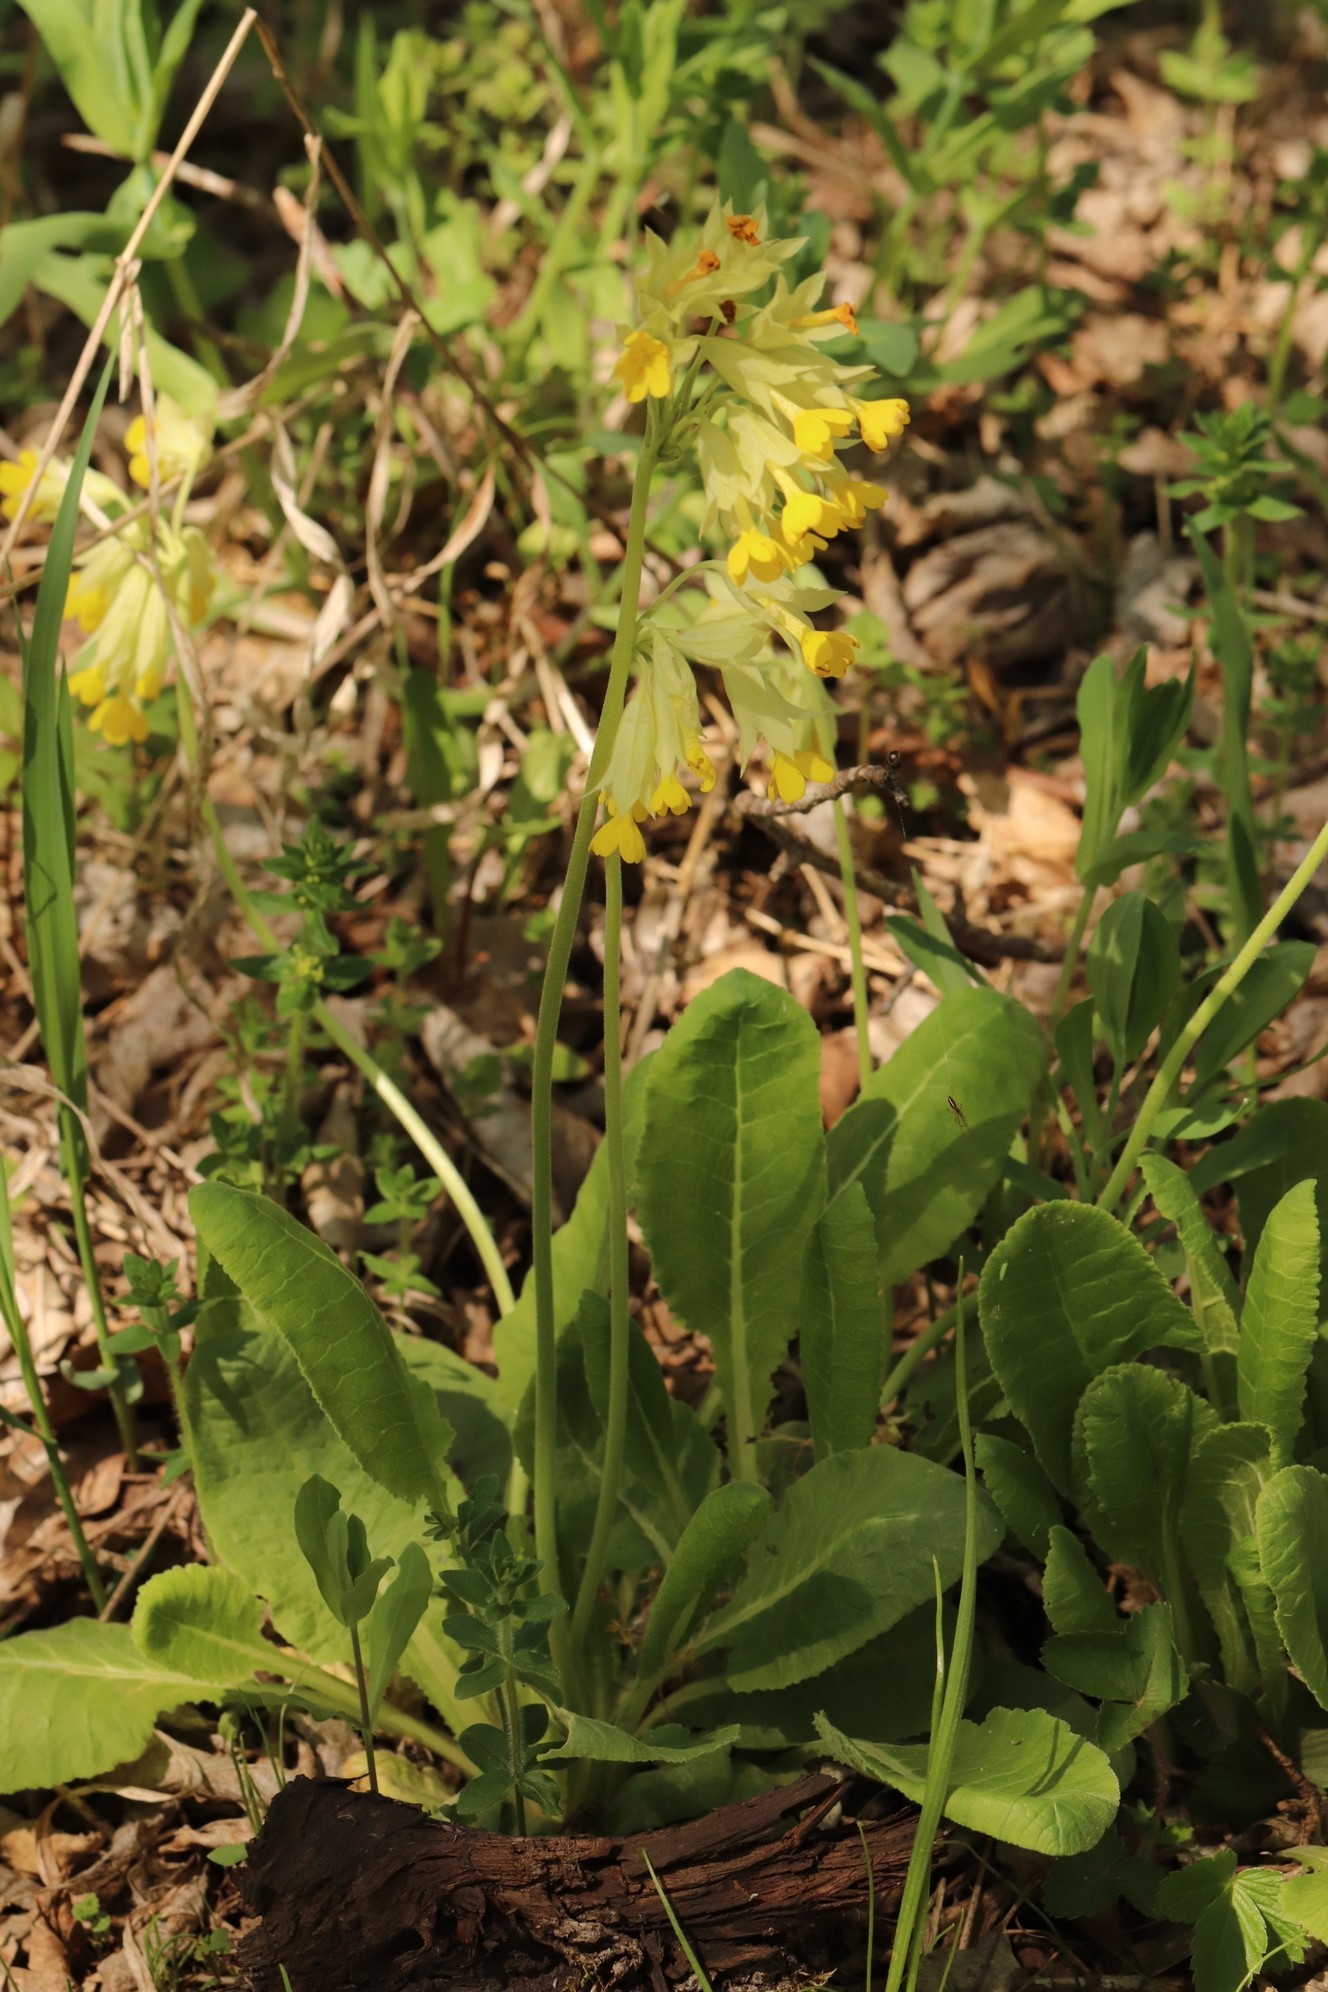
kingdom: Plantae
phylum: Tracheophyta
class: Magnoliopsida
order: Ericales
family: Primulaceae
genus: Primula
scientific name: Primula veris
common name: Cowslip
